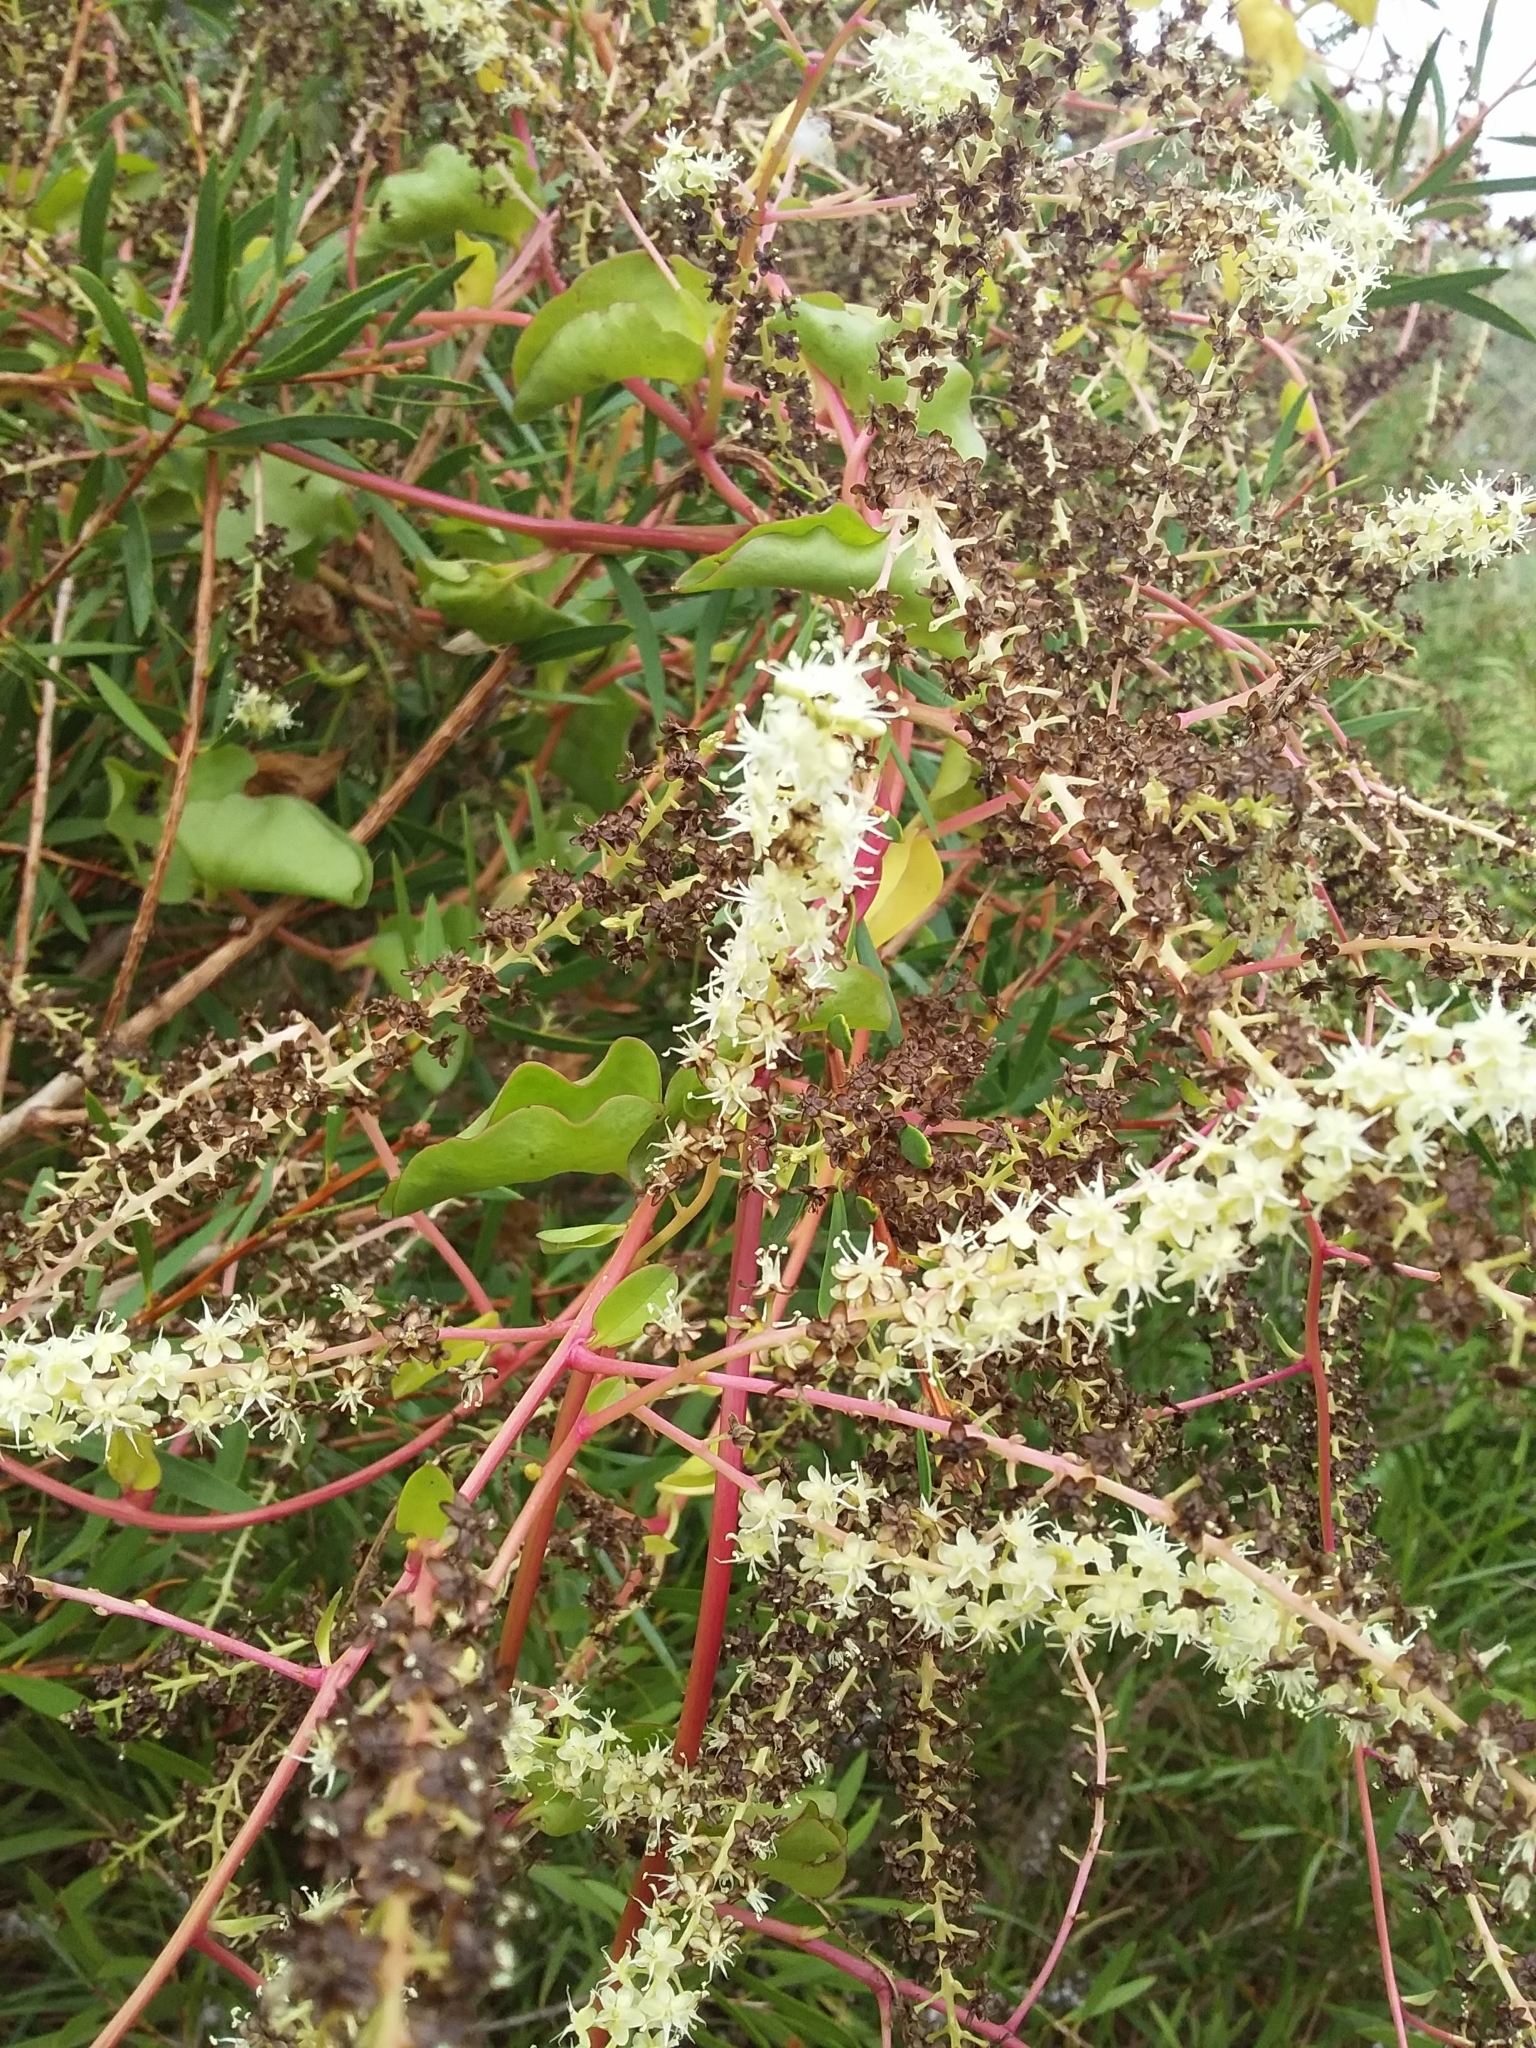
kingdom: Plantae
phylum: Tracheophyta
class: Magnoliopsida
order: Caryophyllales
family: Basellaceae
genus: Anredera
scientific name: Anredera cordifolia
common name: Heartleaf madeiravine
